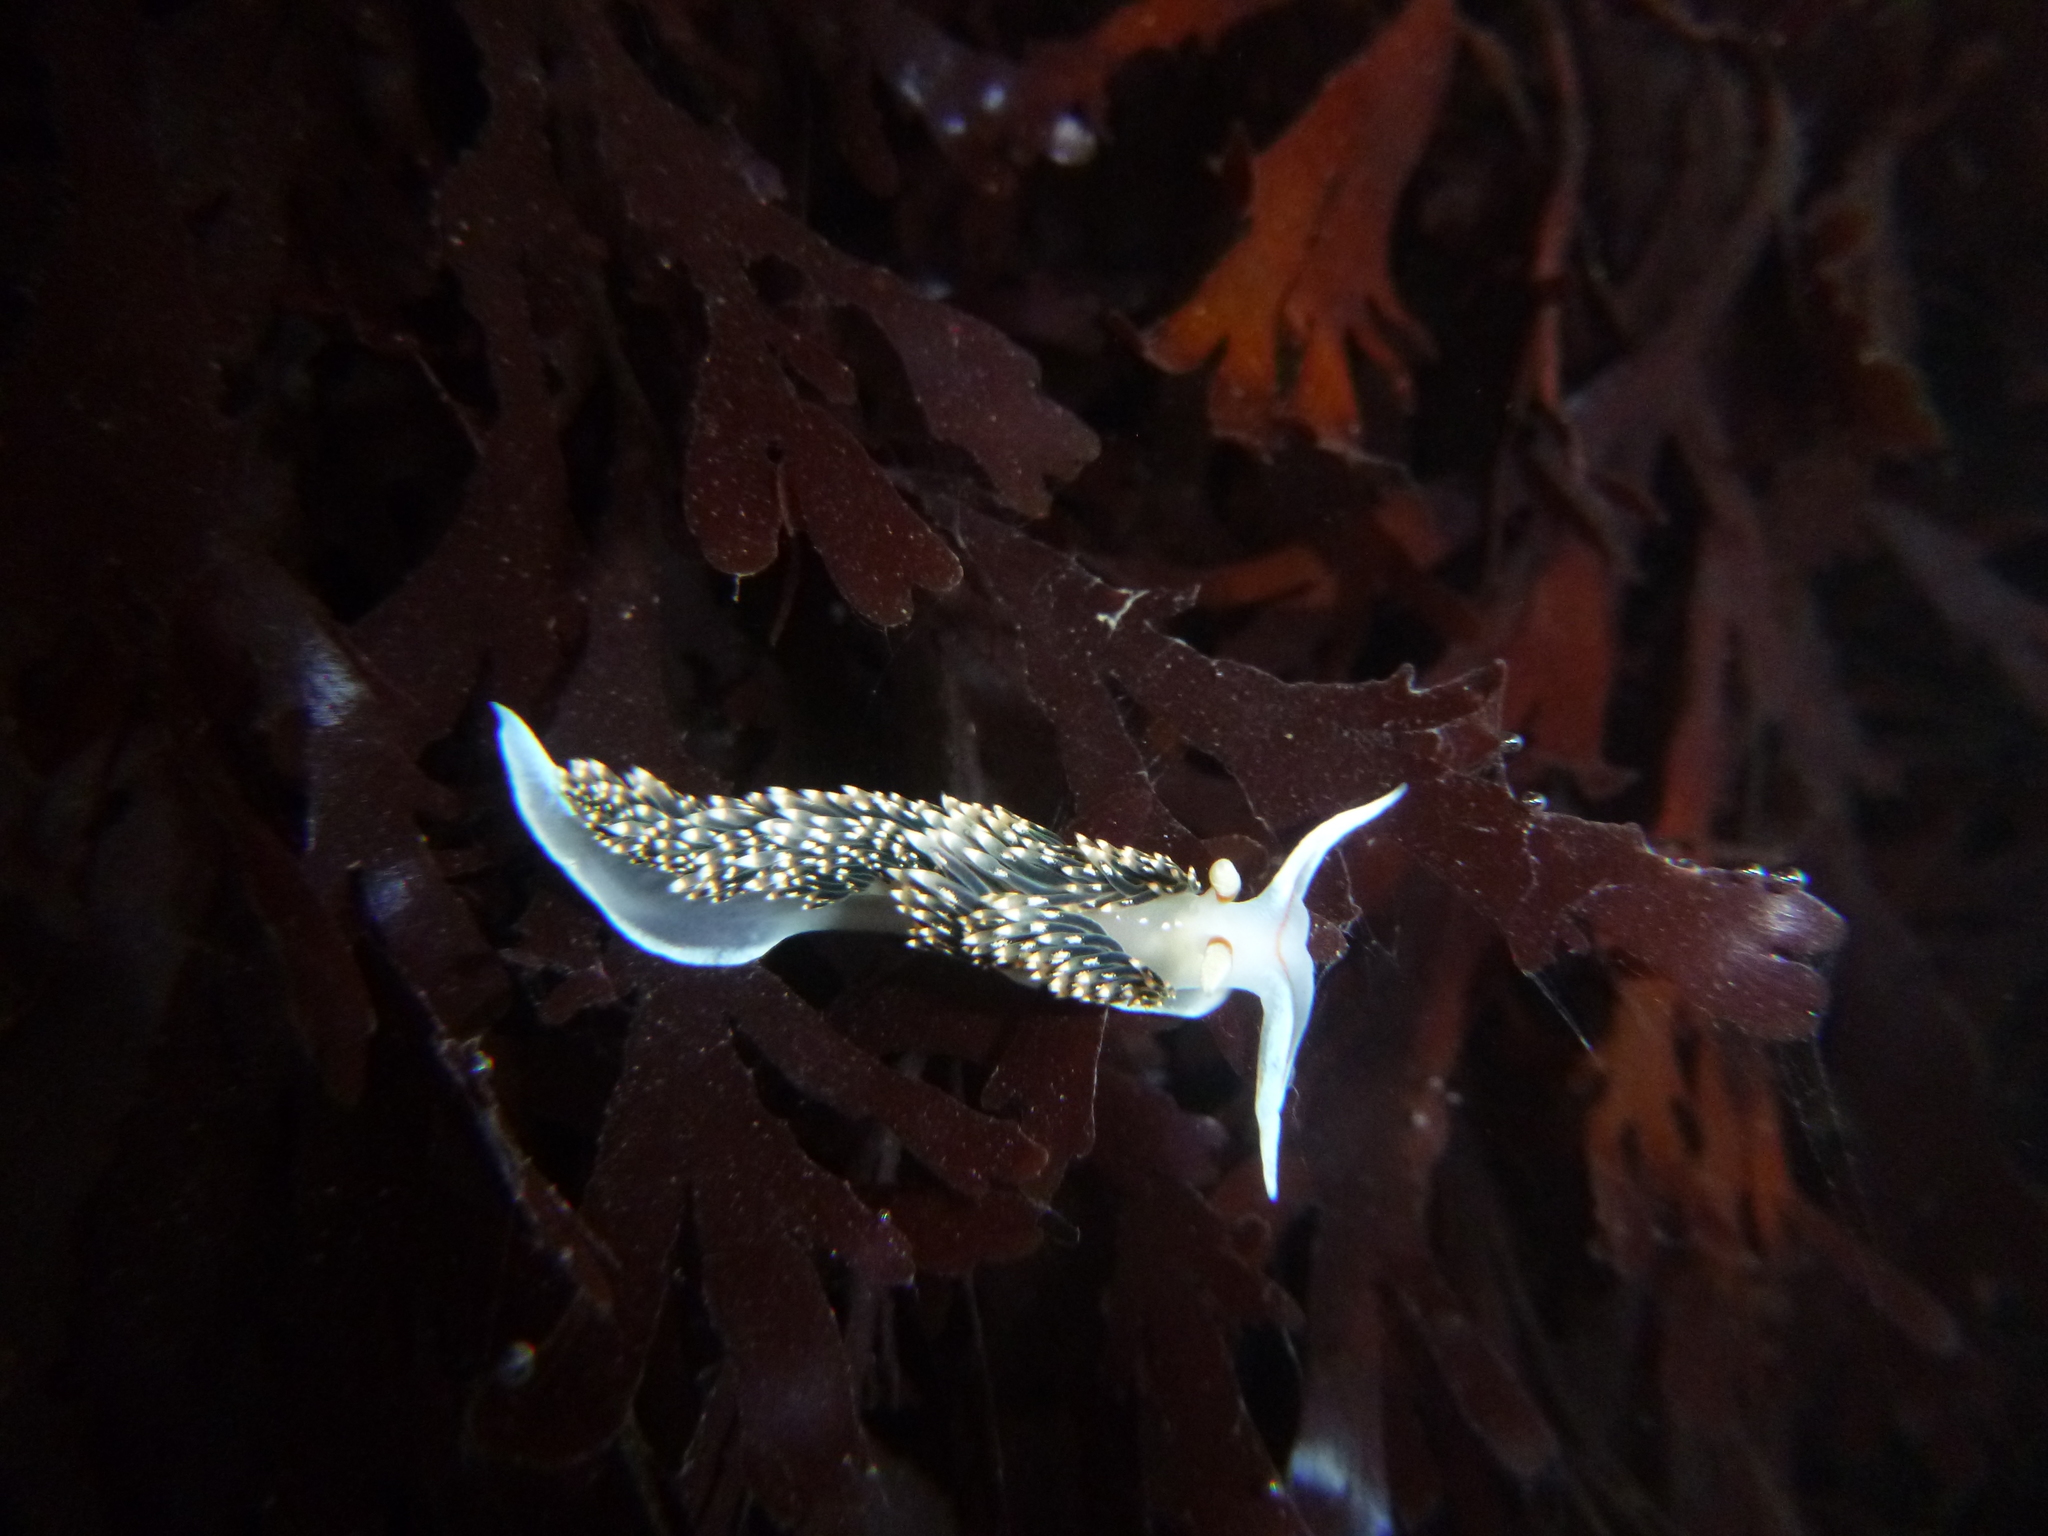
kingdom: Animalia
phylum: Mollusca
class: Gastropoda
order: Nudibranchia
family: Facelinidae
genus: Phidiana
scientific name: Phidiana hiltoni
